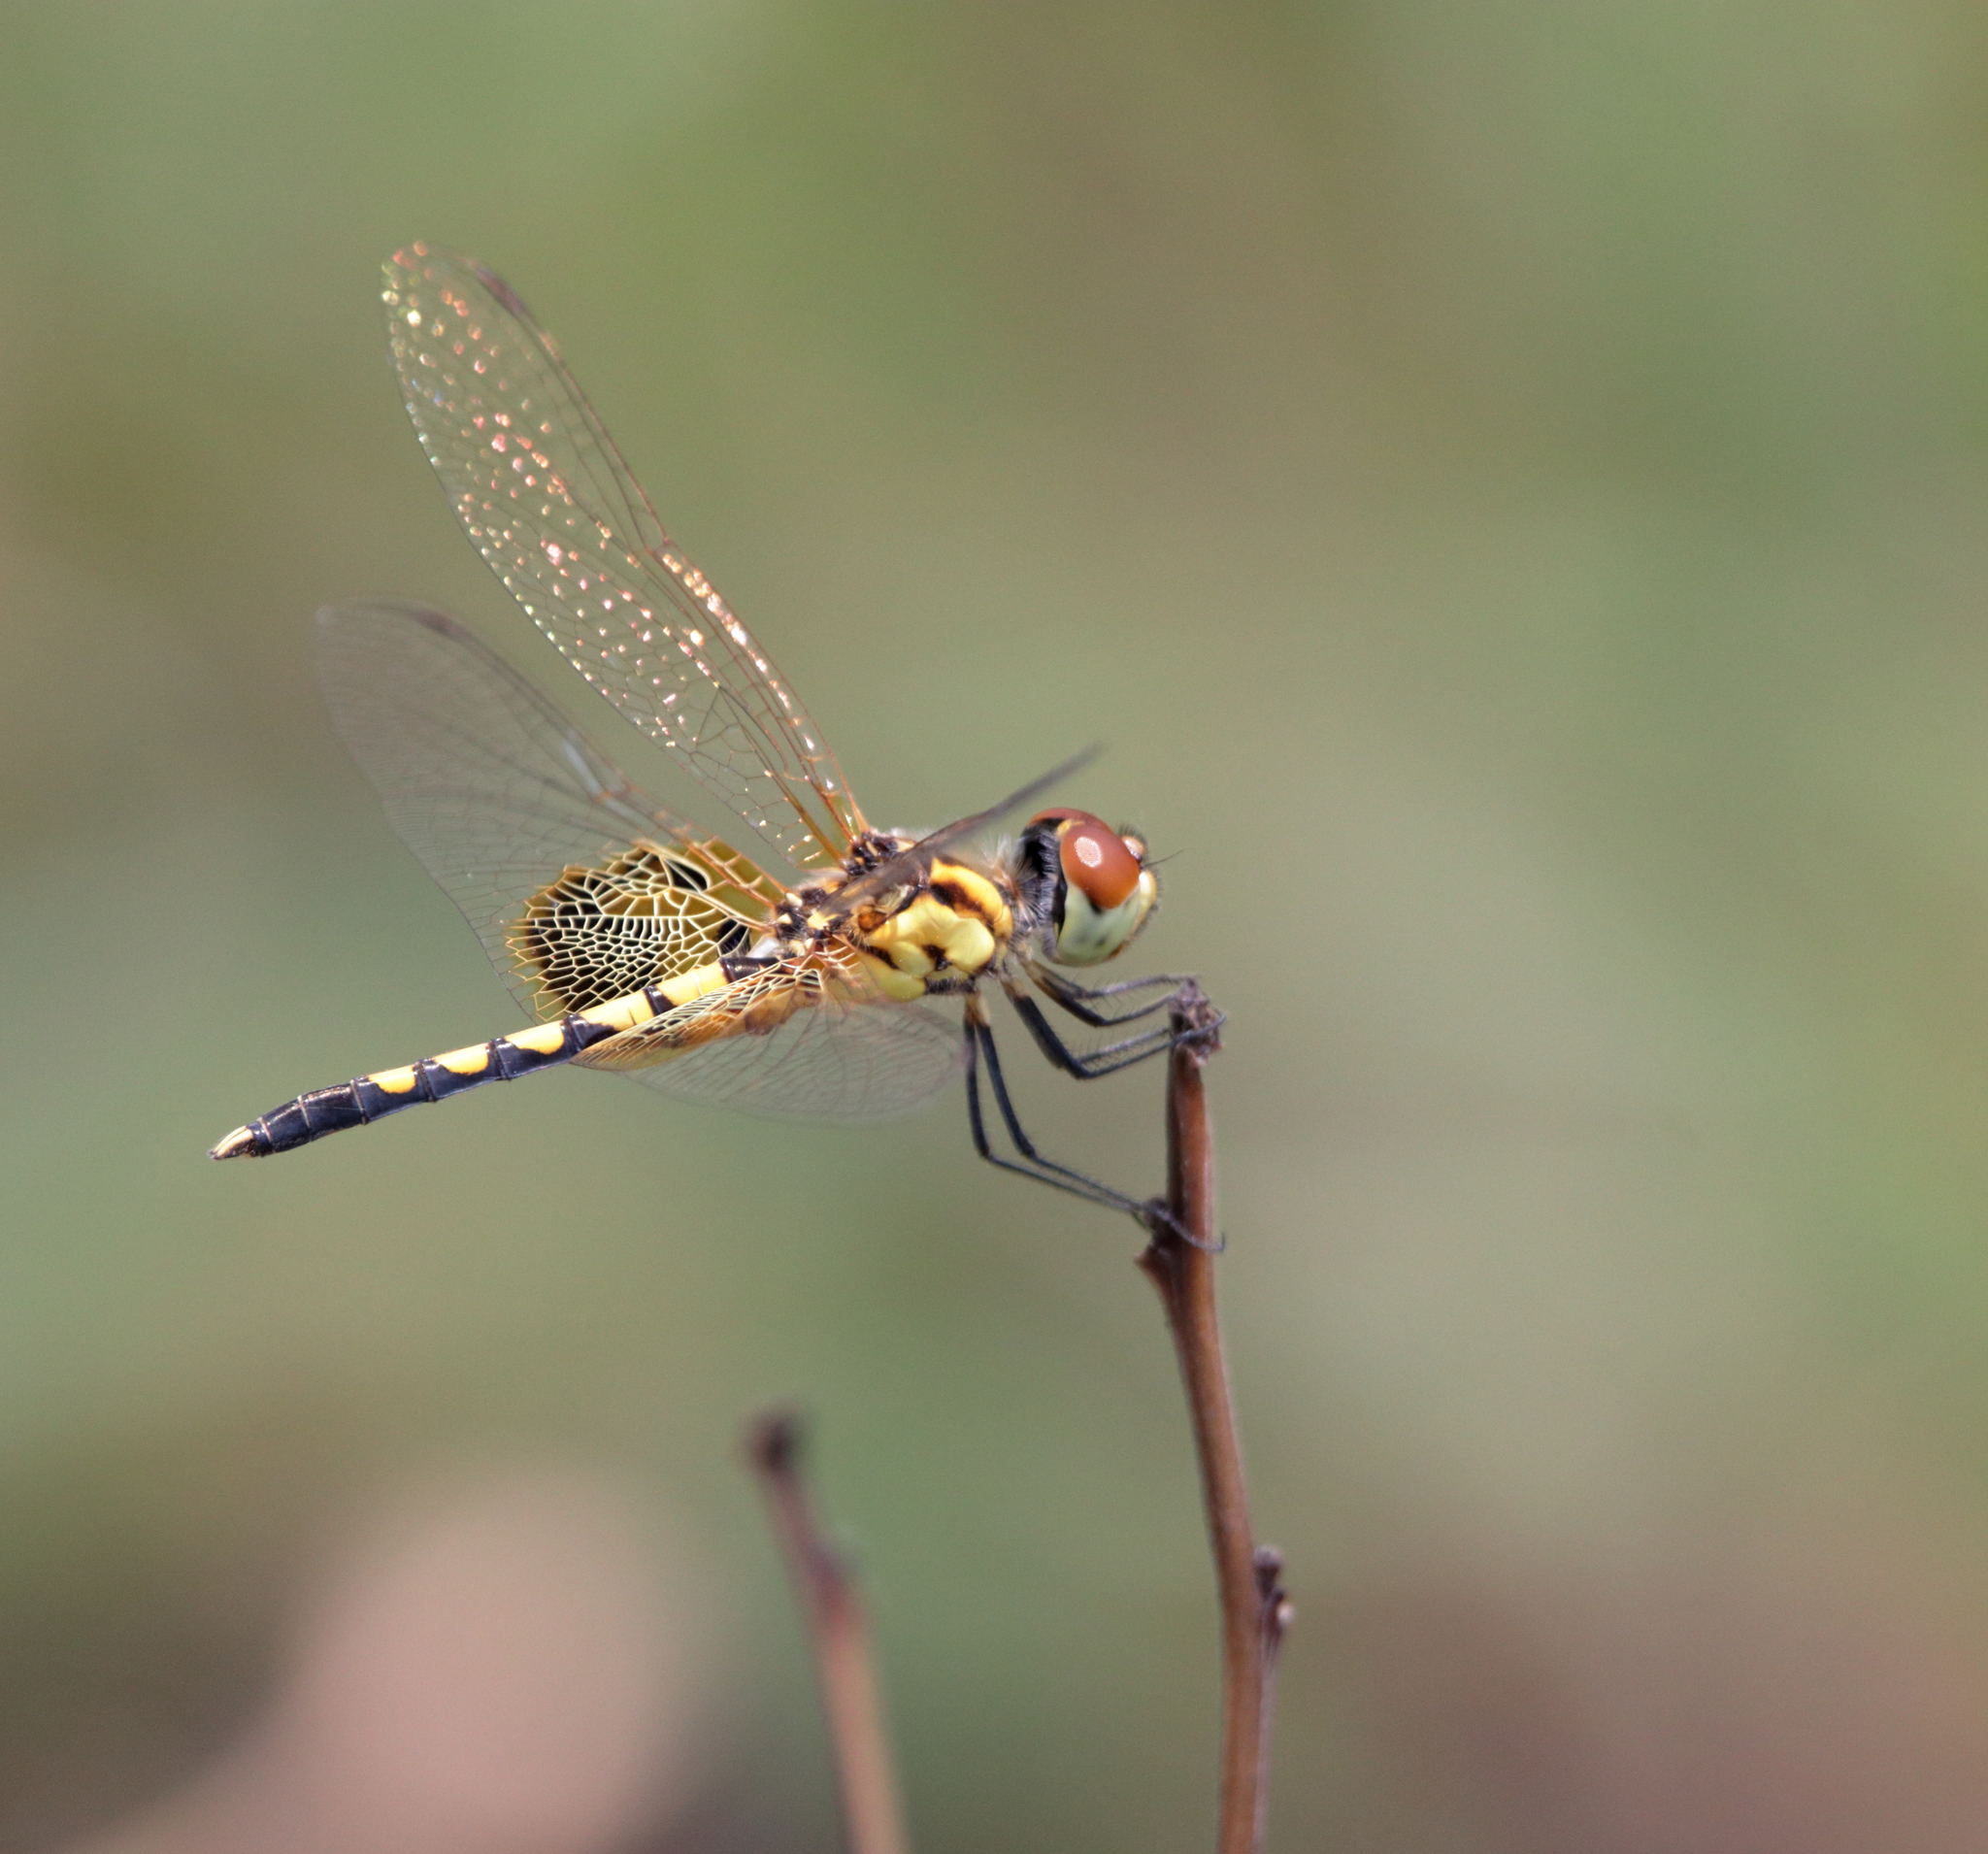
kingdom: Animalia
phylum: Arthropoda
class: Insecta
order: Odonata
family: Libellulidae
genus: Celithemis
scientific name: Celithemis amanda
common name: Amanda's pennant
